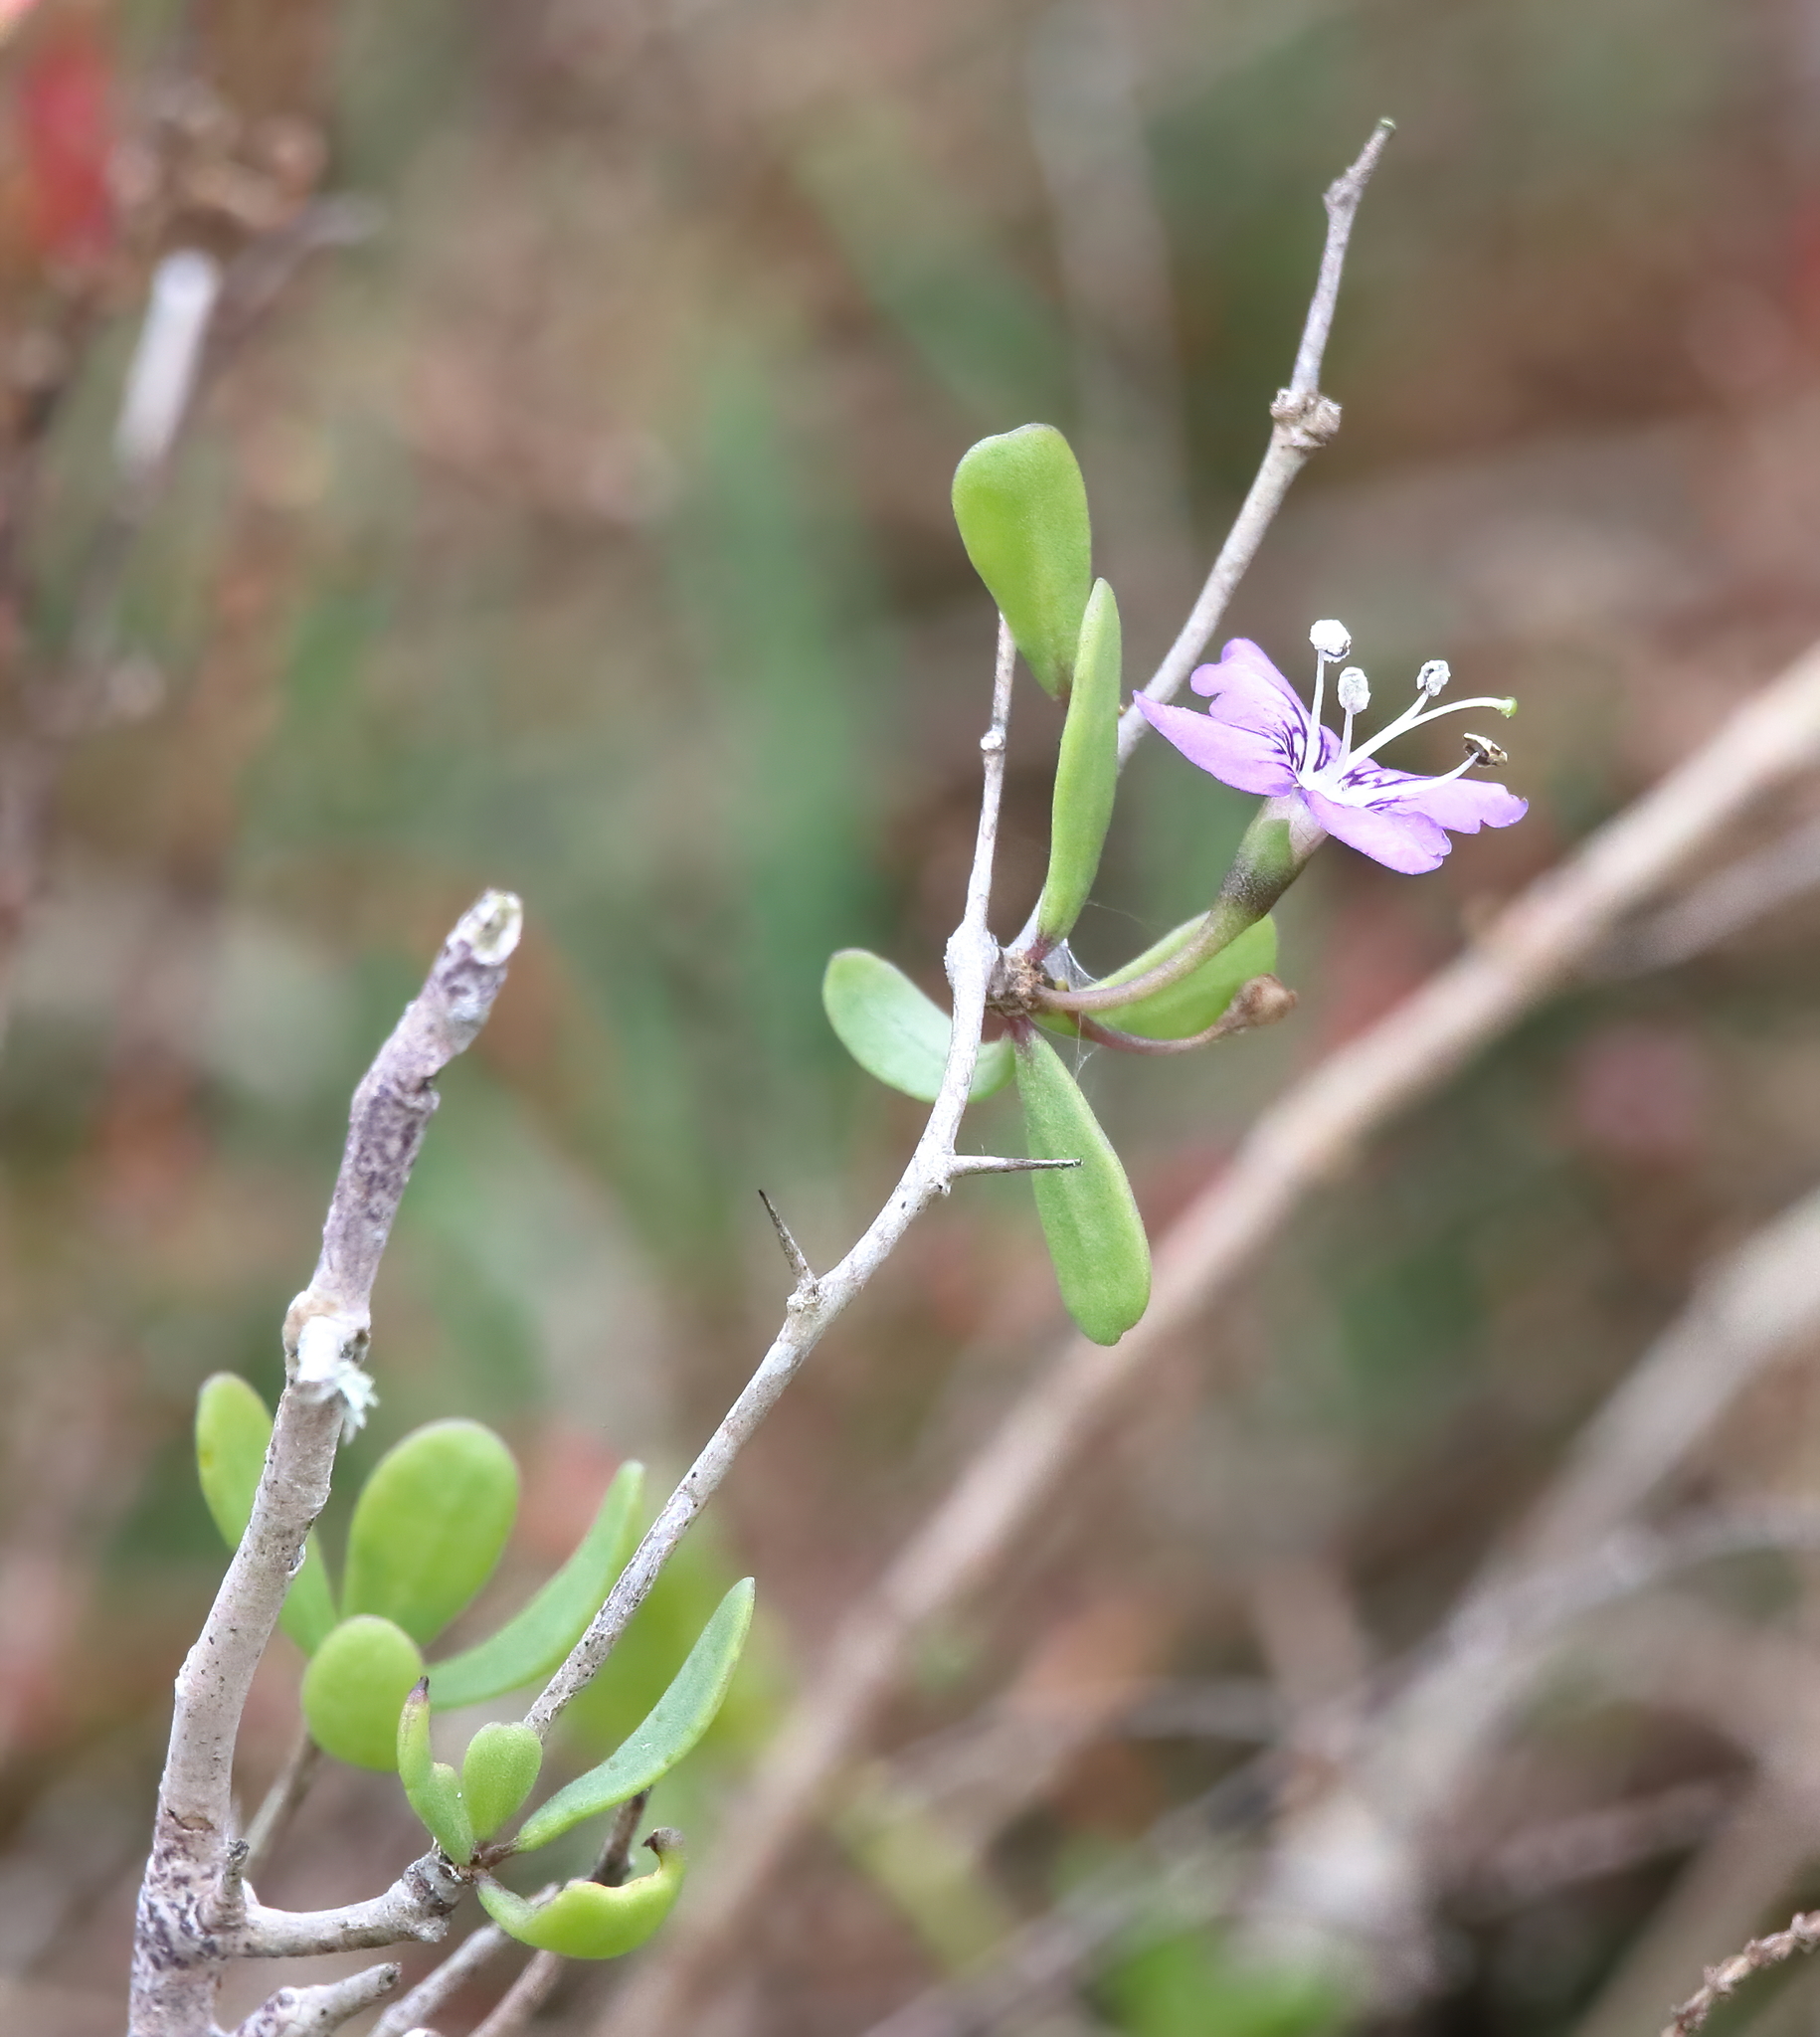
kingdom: Plantae
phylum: Tracheophyta
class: Magnoliopsida
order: Solanales
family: Solanaceae
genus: Lycium
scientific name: Lycium carolinianum
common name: Christmasberry
